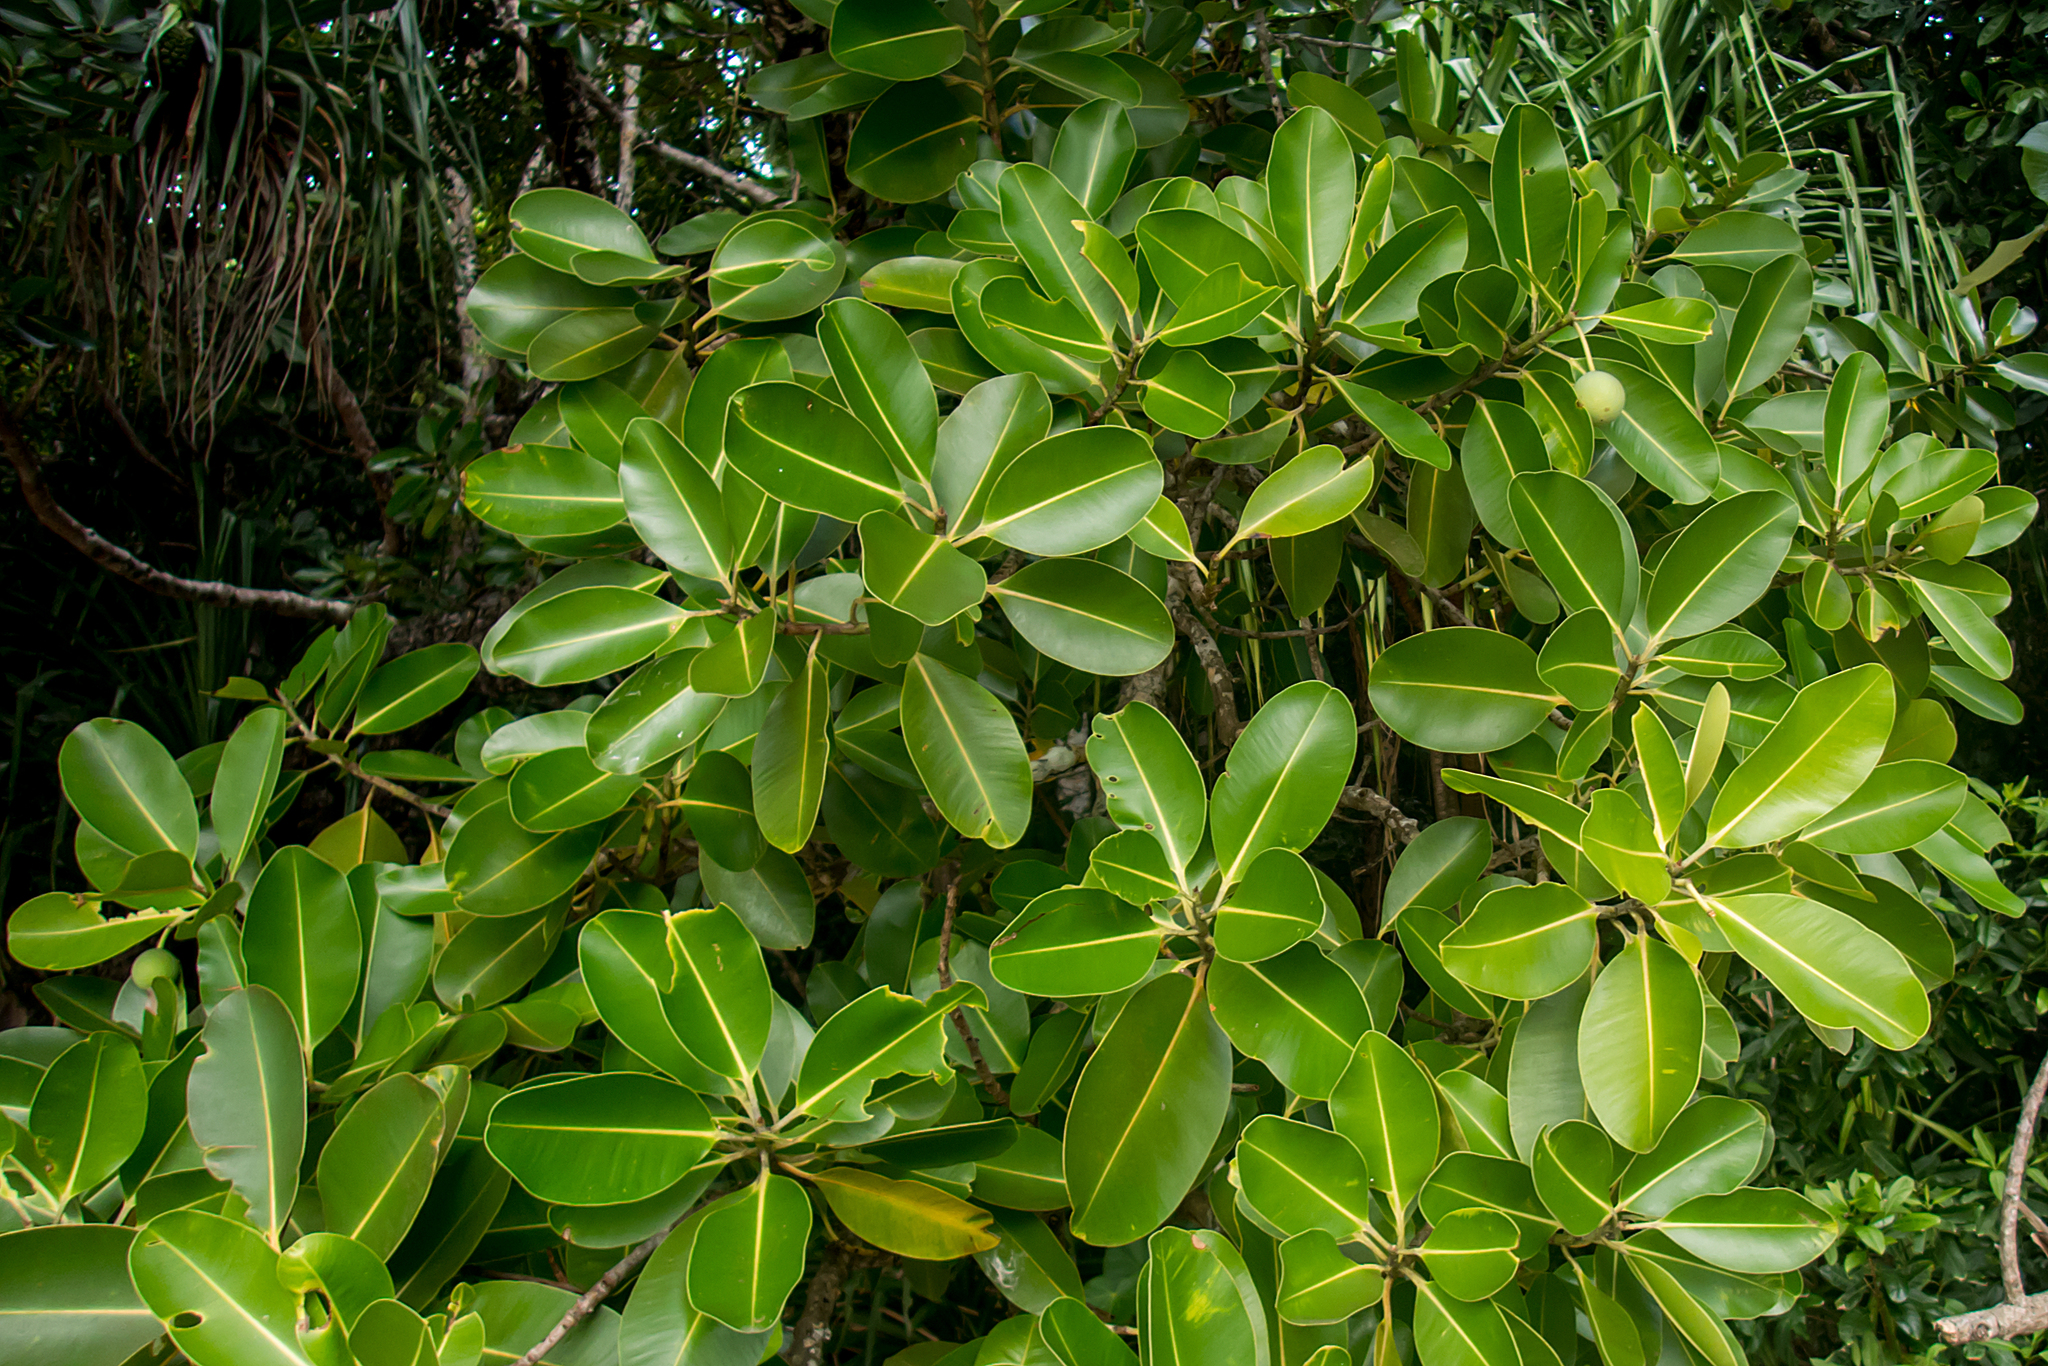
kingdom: Plantae
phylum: Tracheophyta
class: Magnoliopsida
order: Malpighiales
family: Calophyllaceae
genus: Calophyllum
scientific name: Calophyllum inophyllum
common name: Alexandrian laurel
